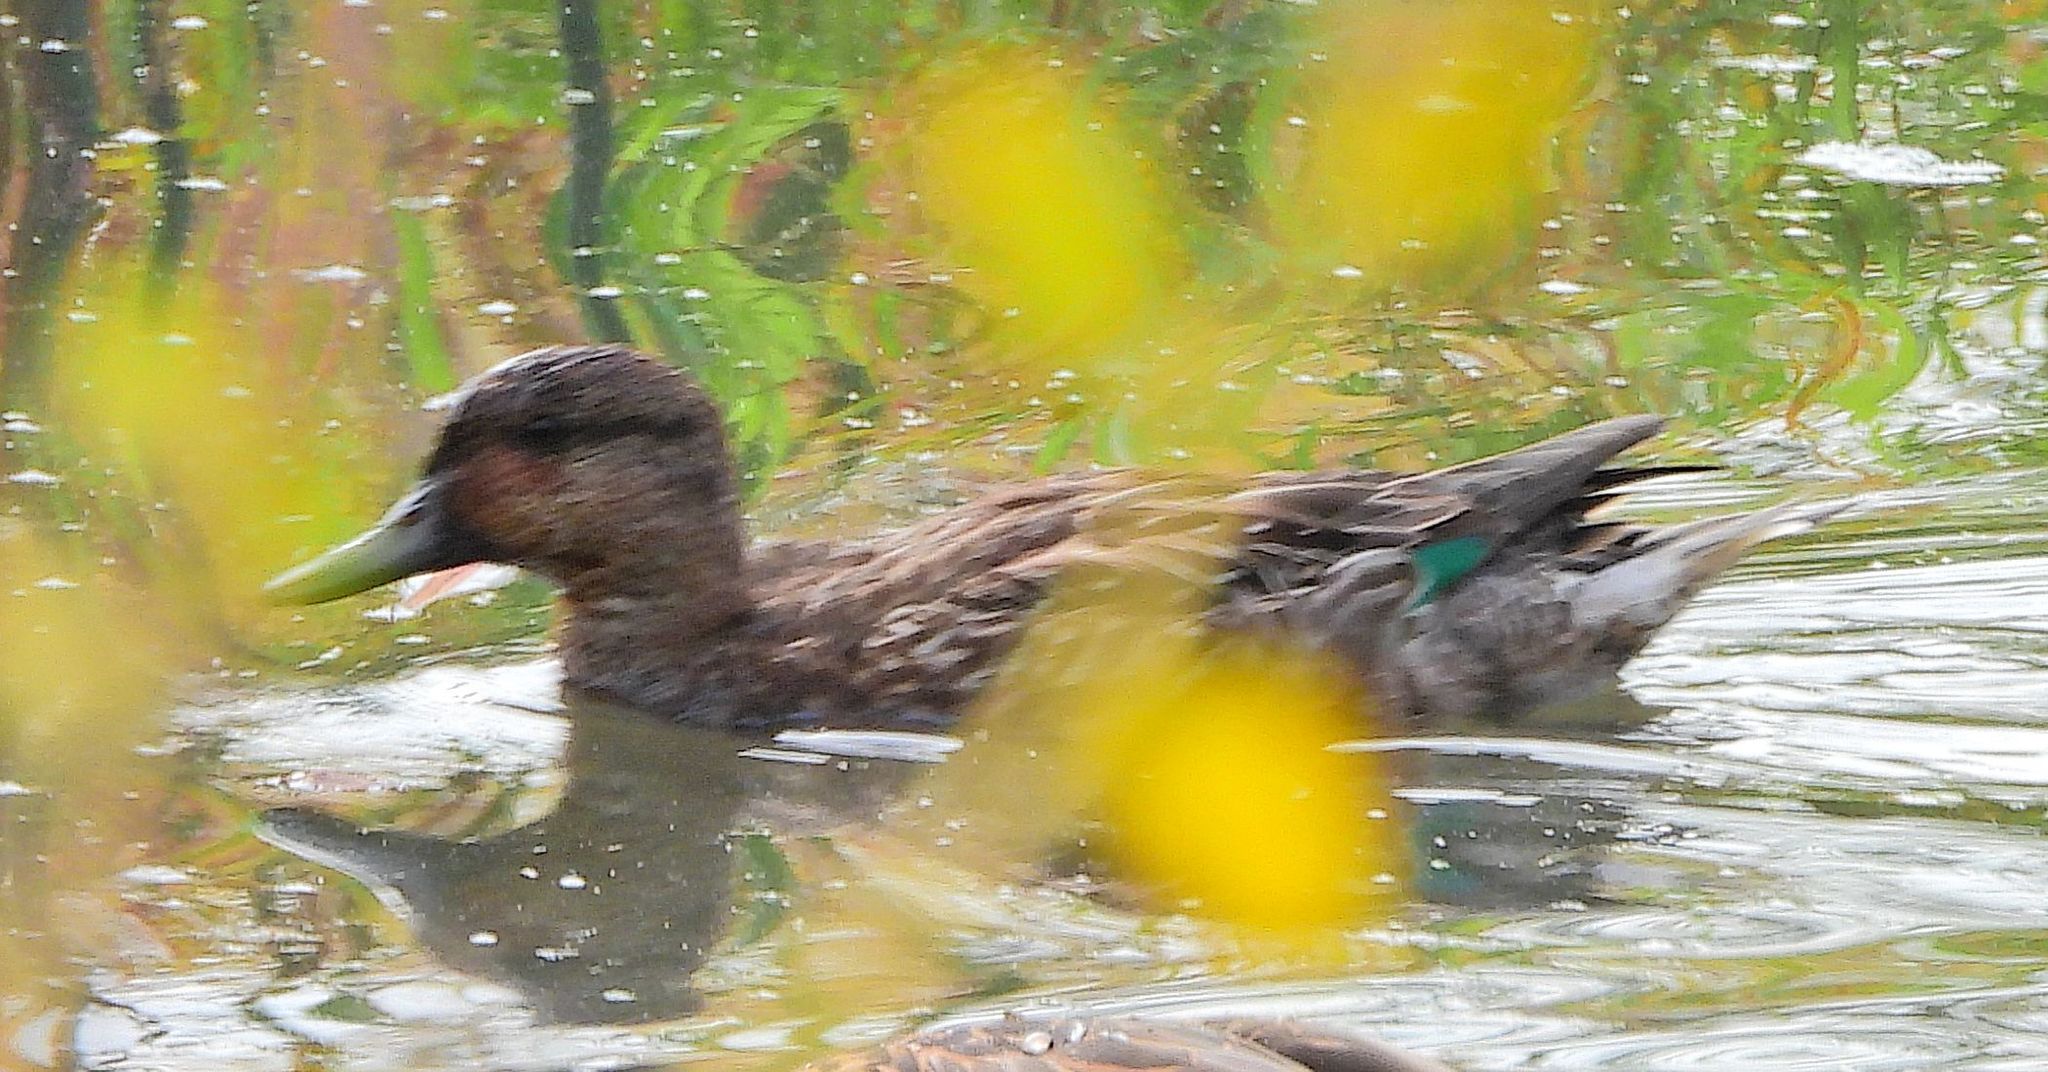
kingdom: Animalia
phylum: Chordata
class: Aves
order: Anseriformes
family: Anatidae
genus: Anas
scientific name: Anas crecca
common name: Eurasian teal
